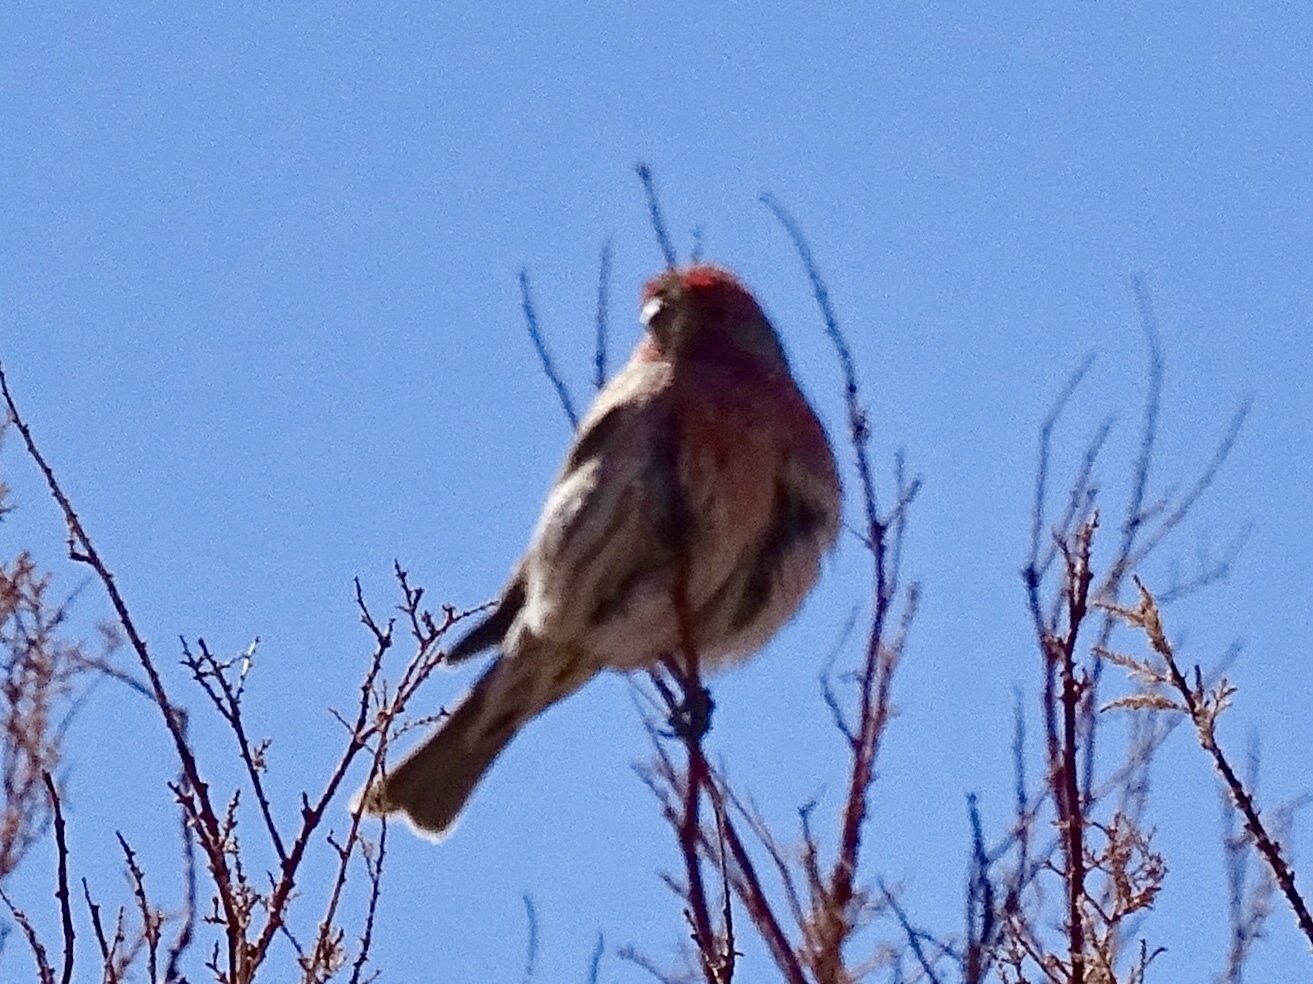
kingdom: Animalia
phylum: Chordata
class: Aves
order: Passeriformes
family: Fringillidae
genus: Haemorhous
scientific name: Haemorhous mexicanus
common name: House finch
